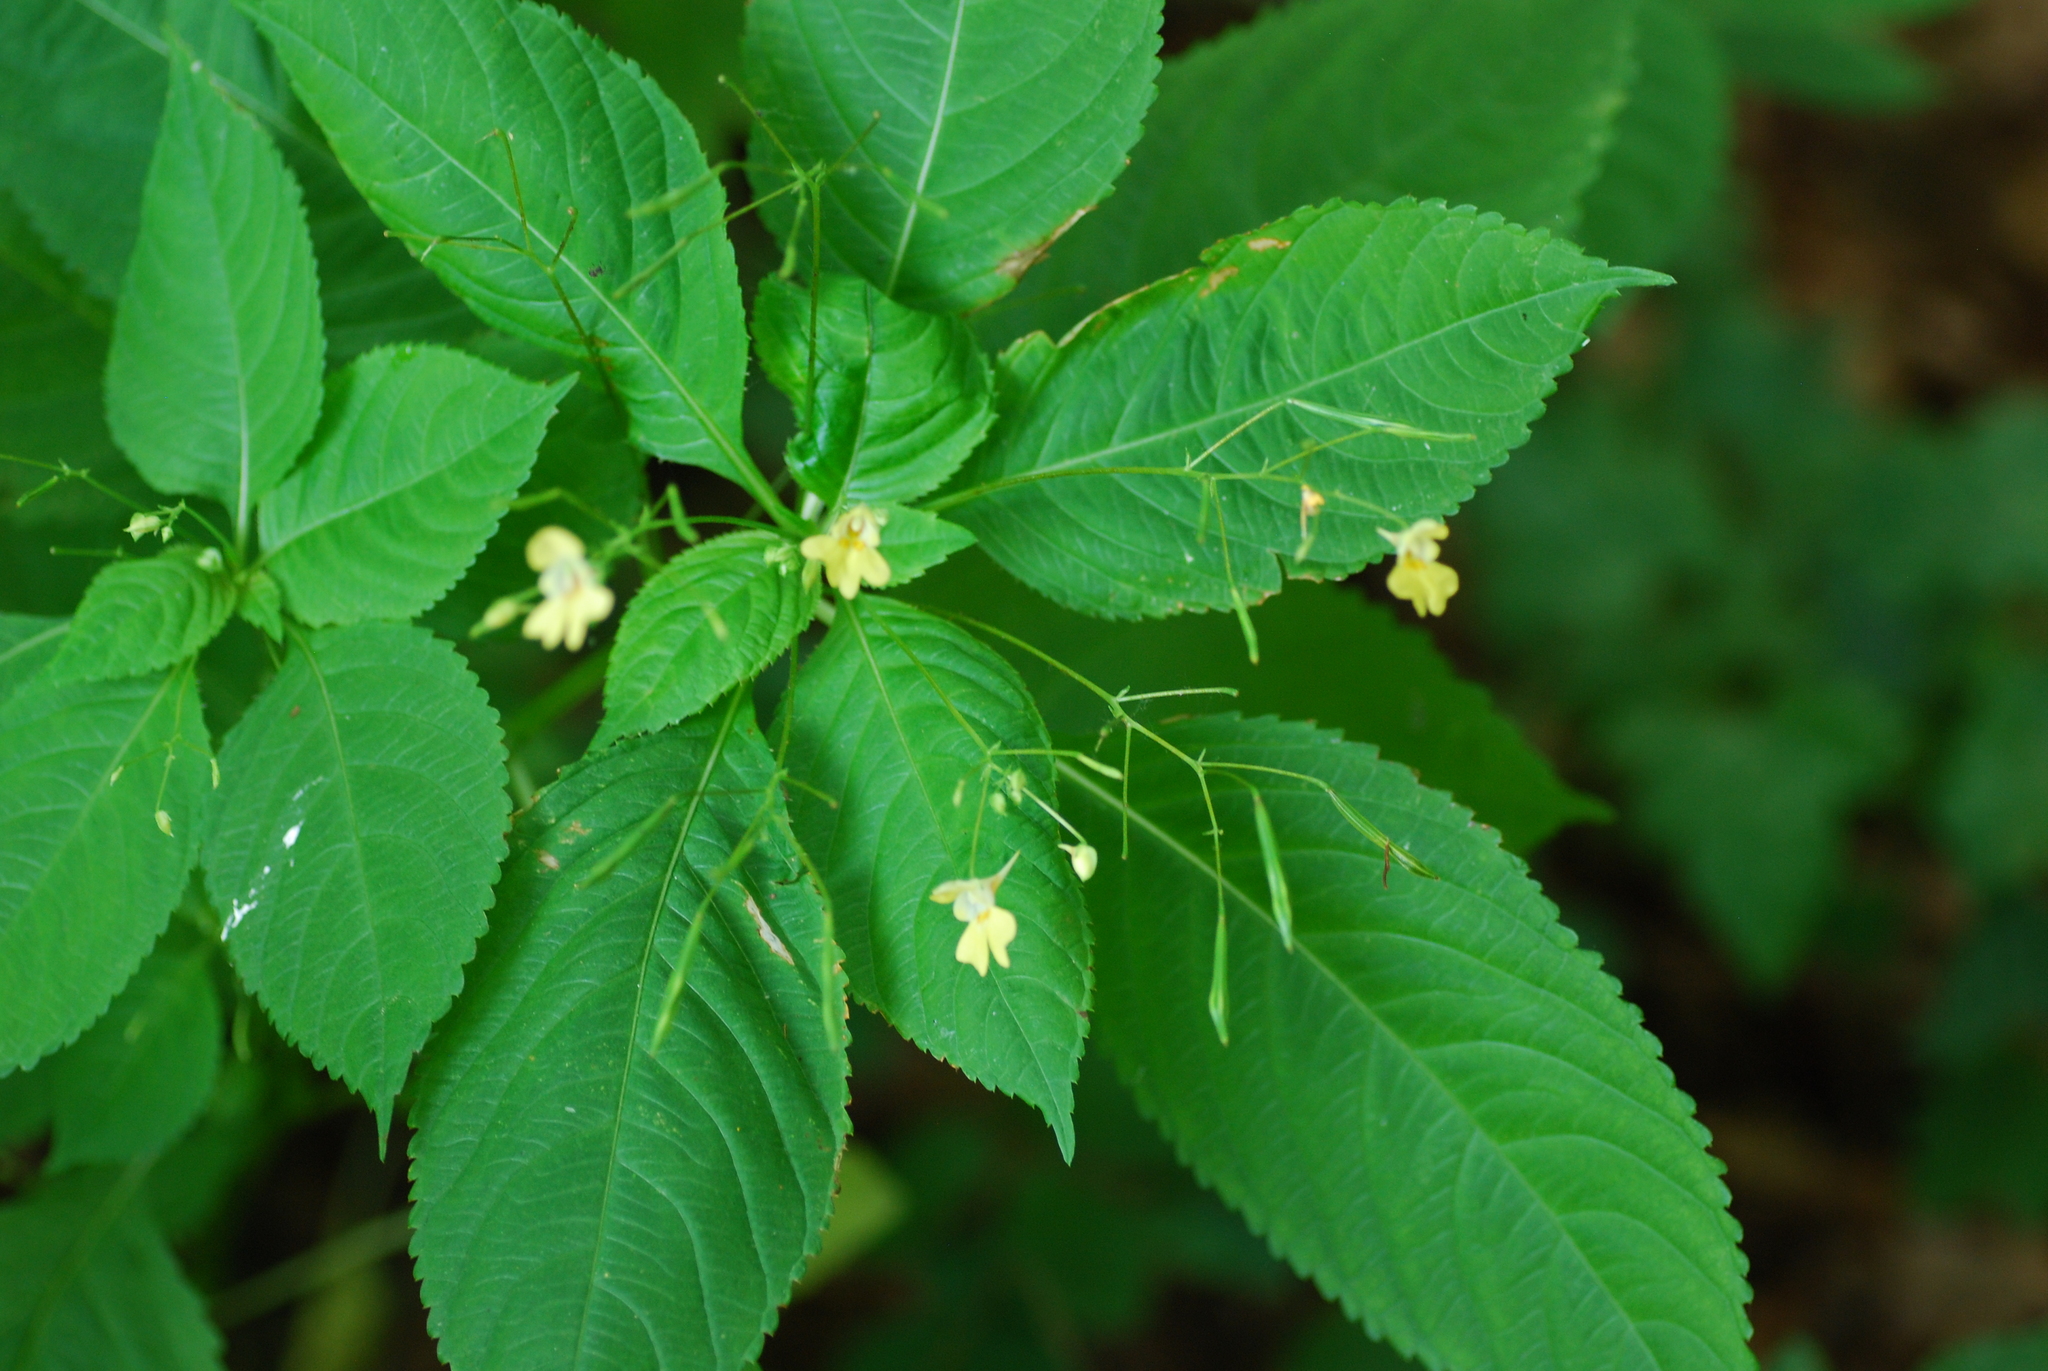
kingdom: Plantae
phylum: Tracheophyta
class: Magnoliopsida
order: Ericales
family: Balsaminaceae
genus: Impatiens
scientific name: Impatiens parviflora
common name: Small balsam
